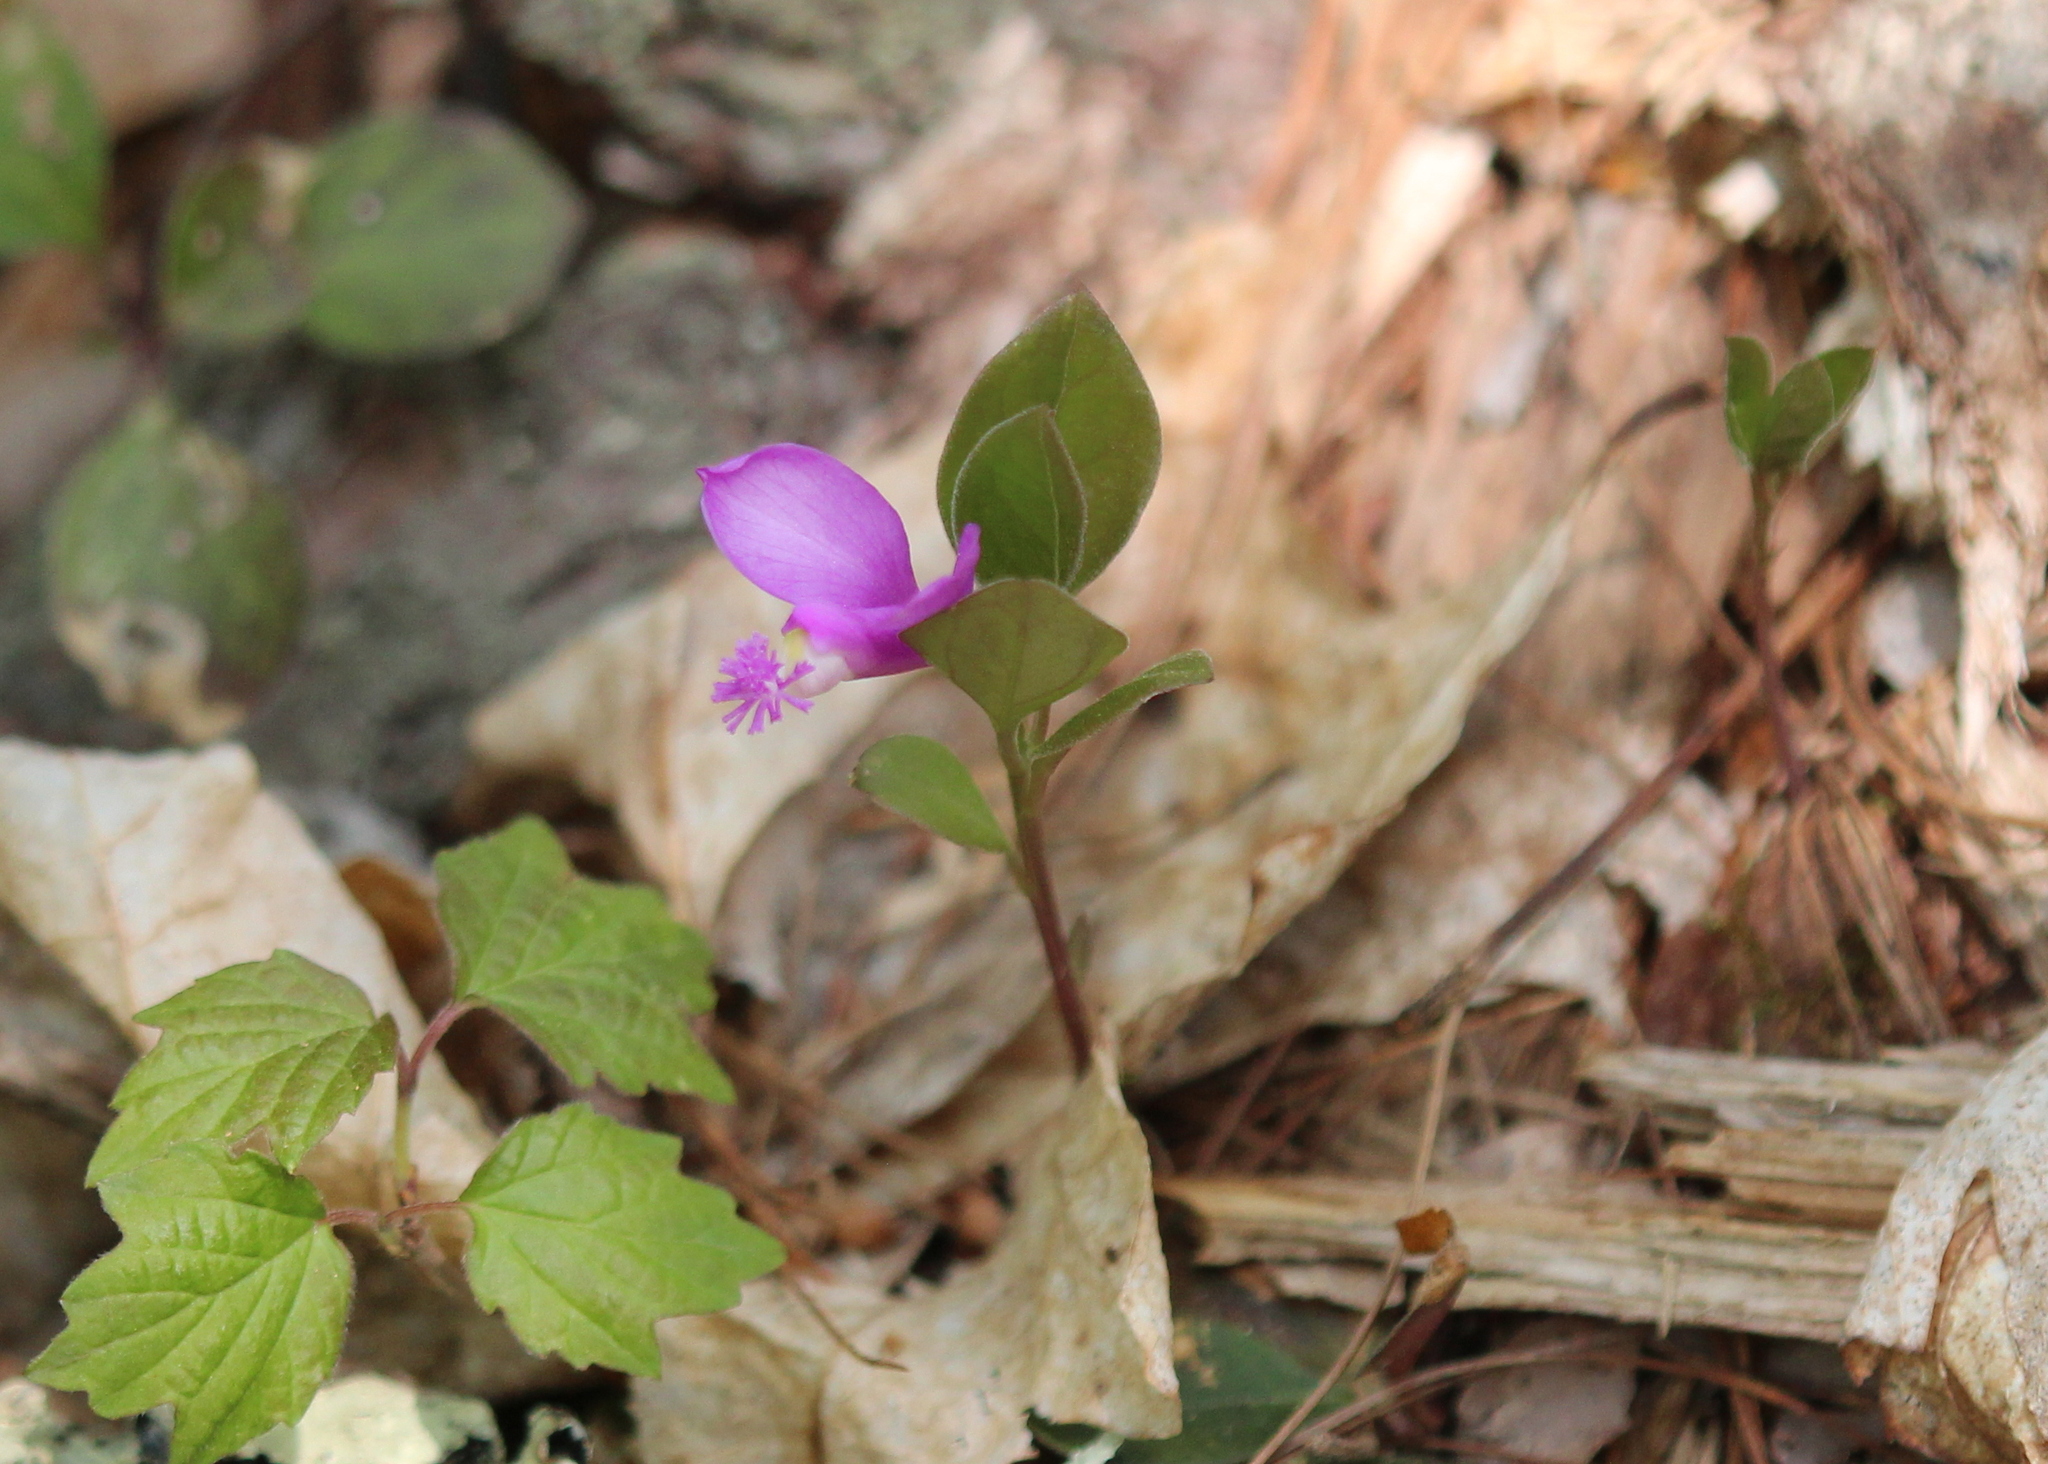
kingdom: Plantae
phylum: Tracheophyta
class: Magnoliopsida
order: Fabales
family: Polygalaceae
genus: Polygaloides
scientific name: Polygaloides paucifolia
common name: Bird-on-the-wing
